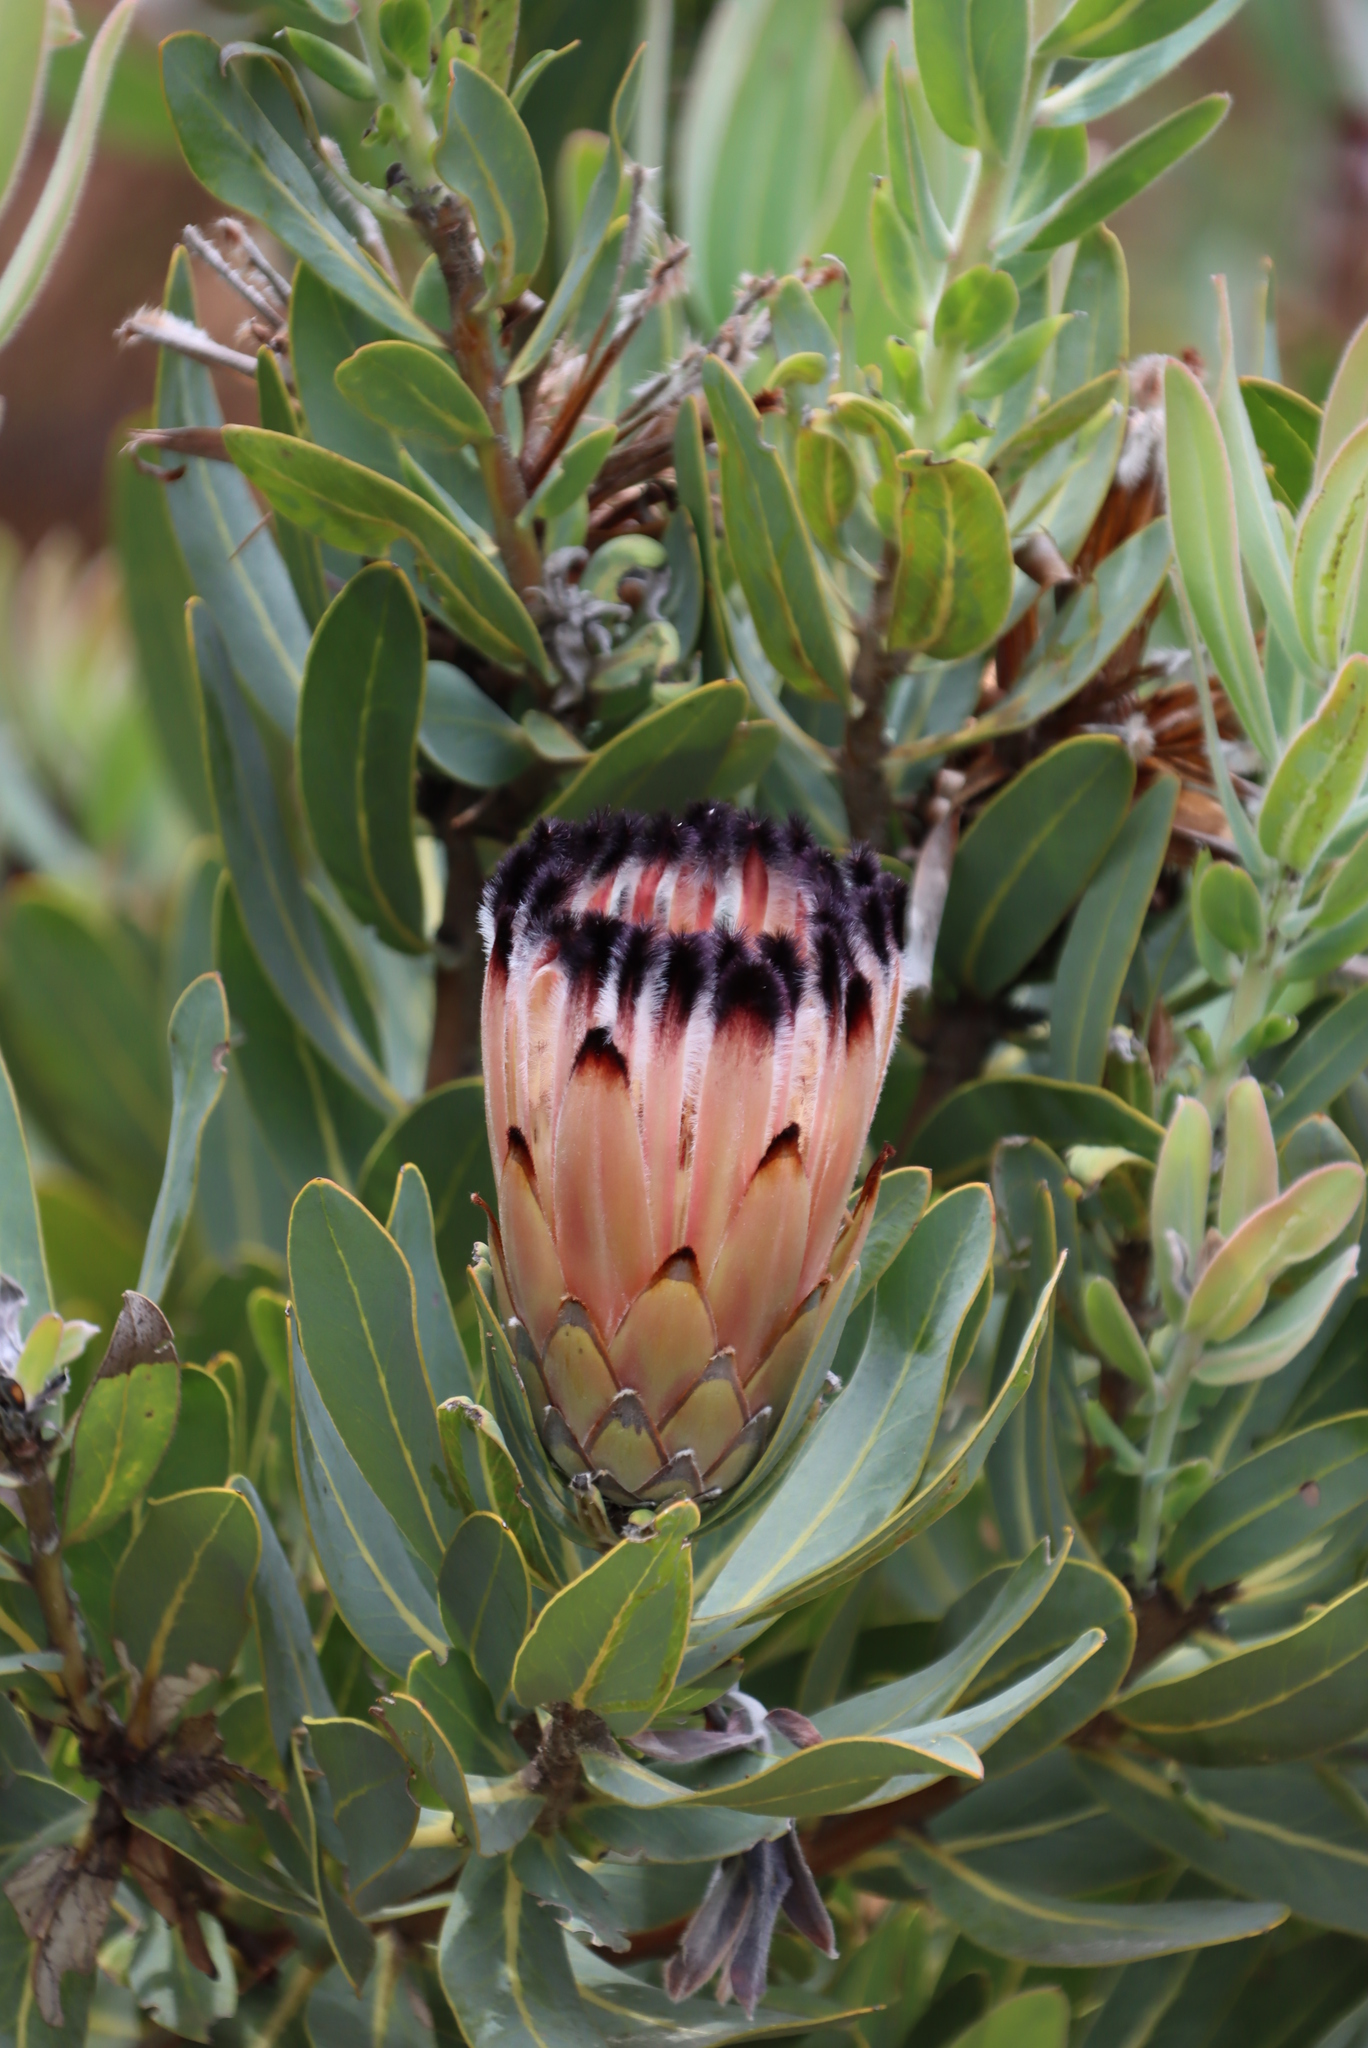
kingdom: Plantae
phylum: Tracheophyta
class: Magnoliopsida
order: Proteales
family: Proteaceae
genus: Protea
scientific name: Protea laurifolia
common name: Grey-leaf sugarbsh
